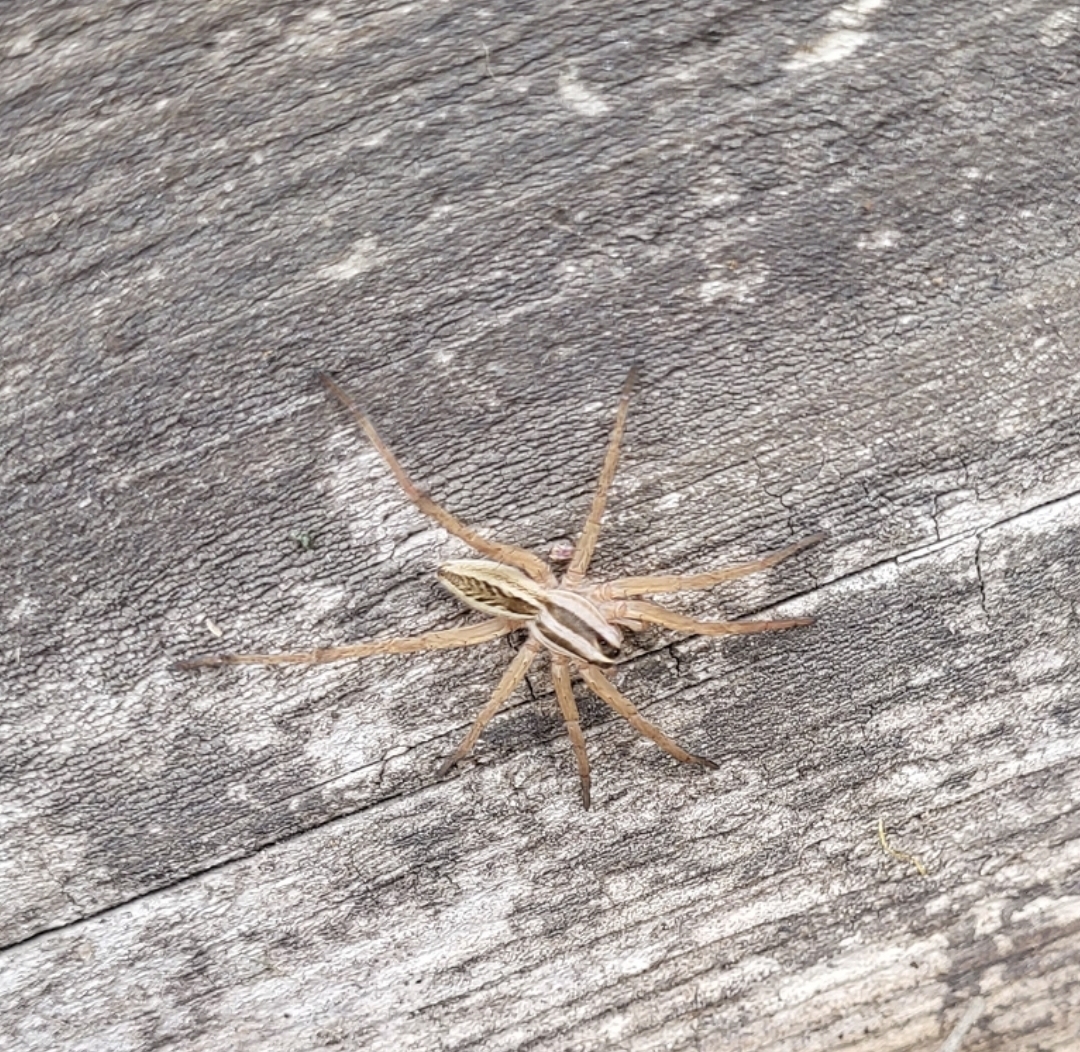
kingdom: Animalia
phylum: Arthropoda
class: Arachnida
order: Araneae
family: Lycosidae
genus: Rabidosa
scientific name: Rabidosa rabida
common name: Rabid wolf spider
